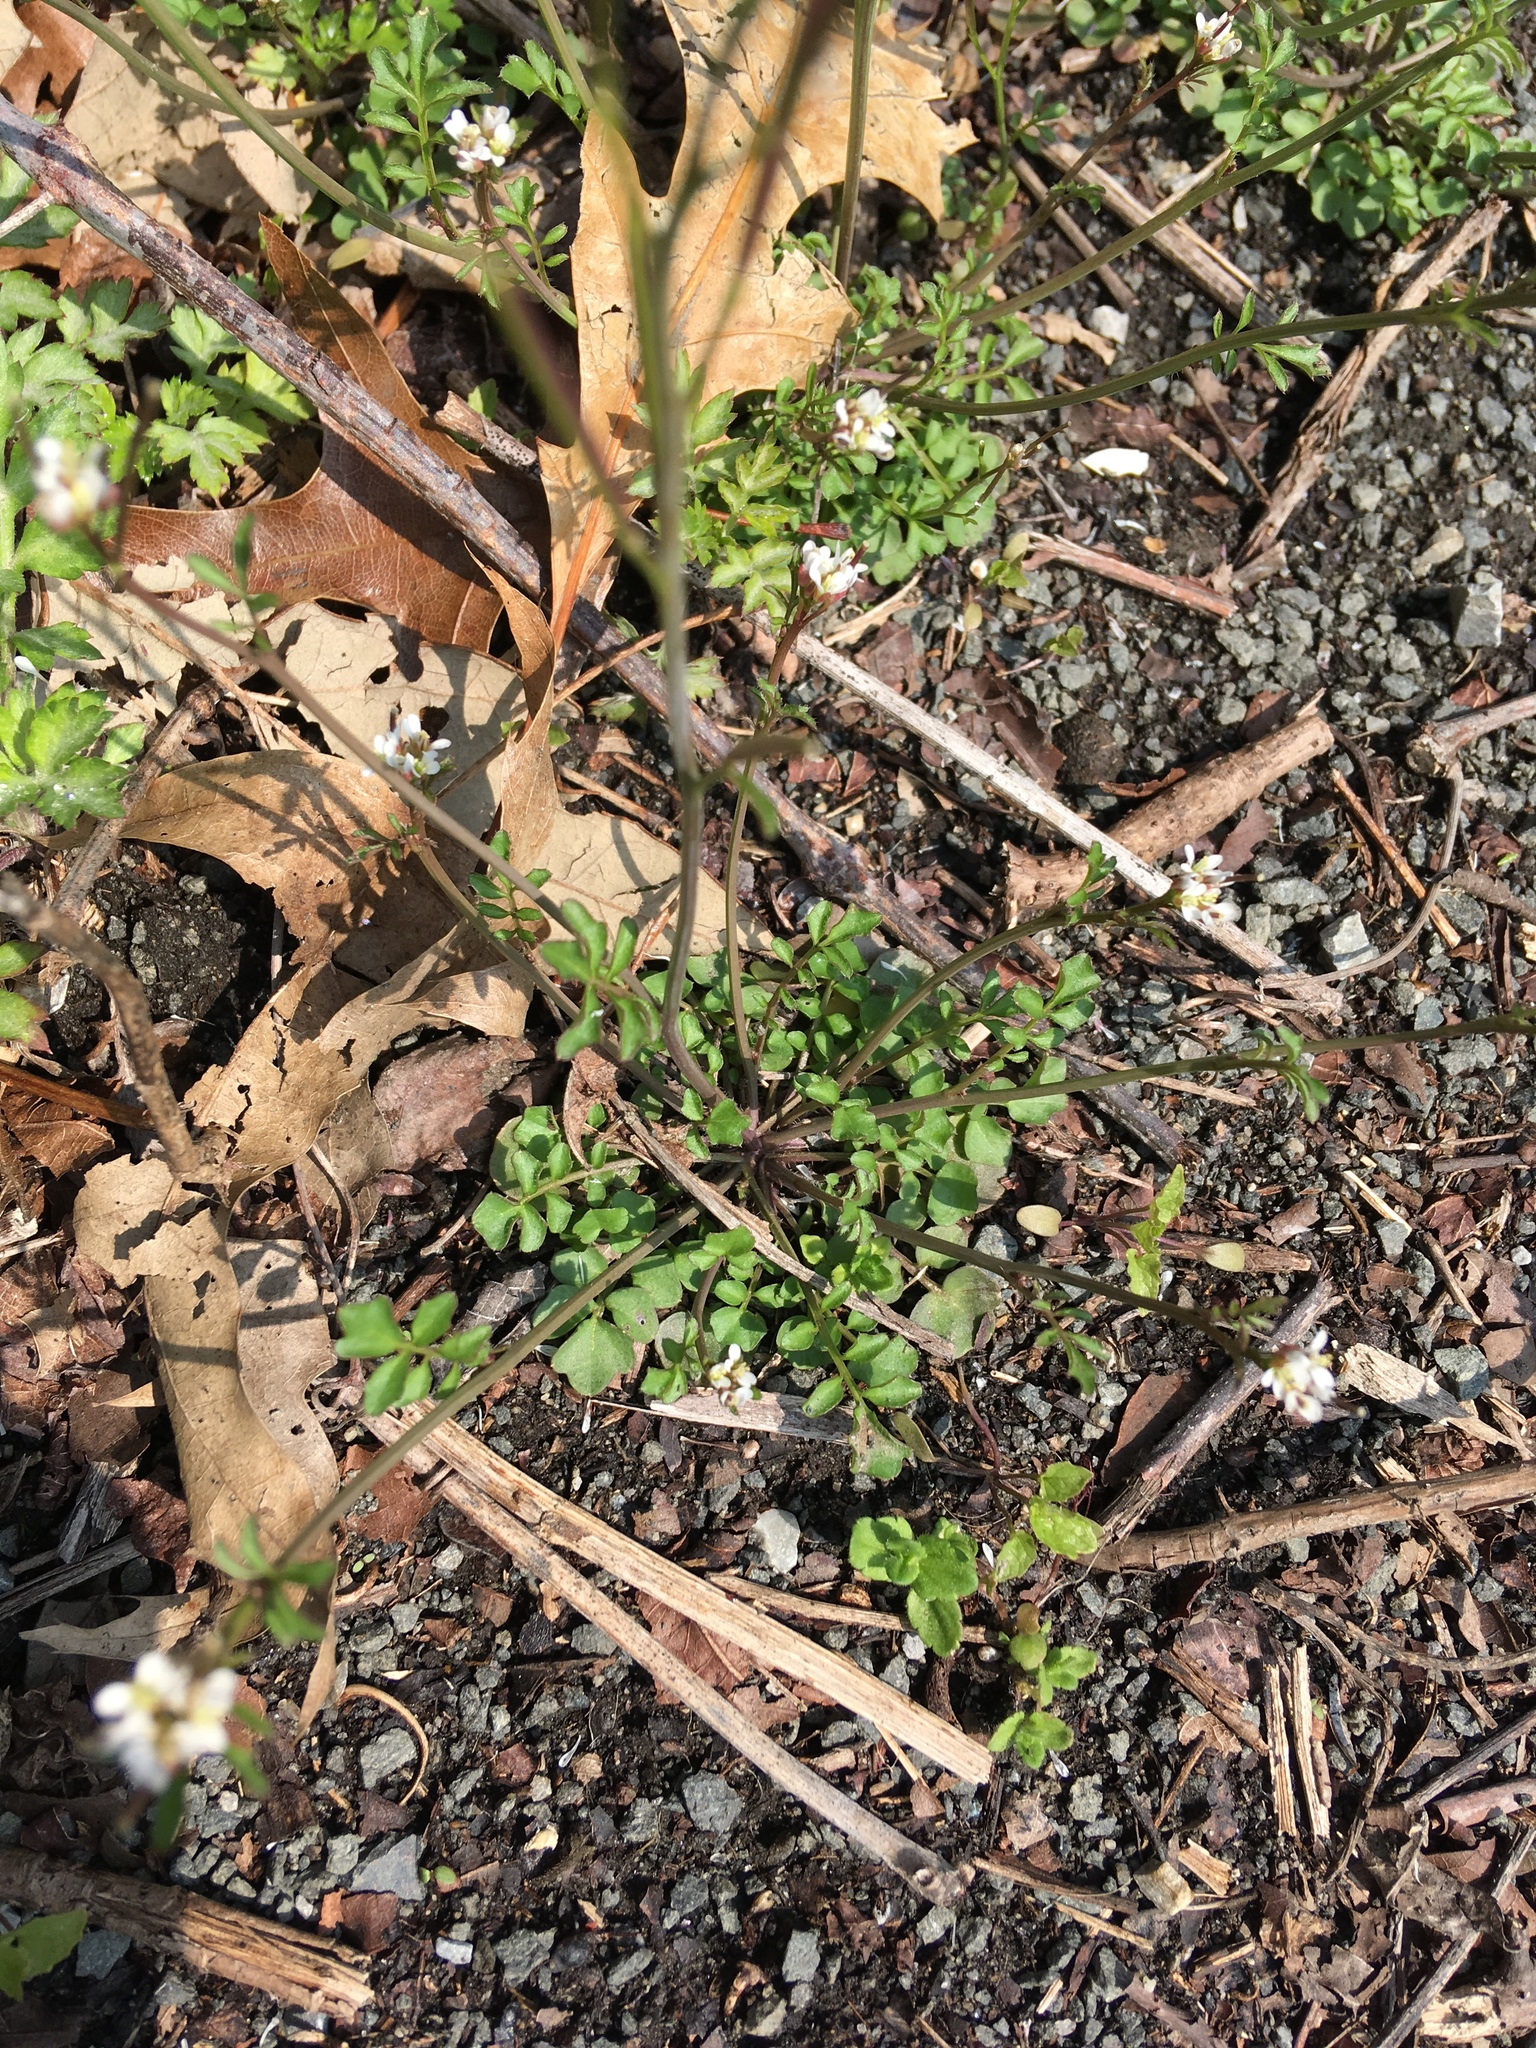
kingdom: Plantae
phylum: Tracheophyta
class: Magnoliopsida
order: Brassicales
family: Brassicaceae
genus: Cardamine
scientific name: Cardamine hirsuta
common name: Hairy bittercress
